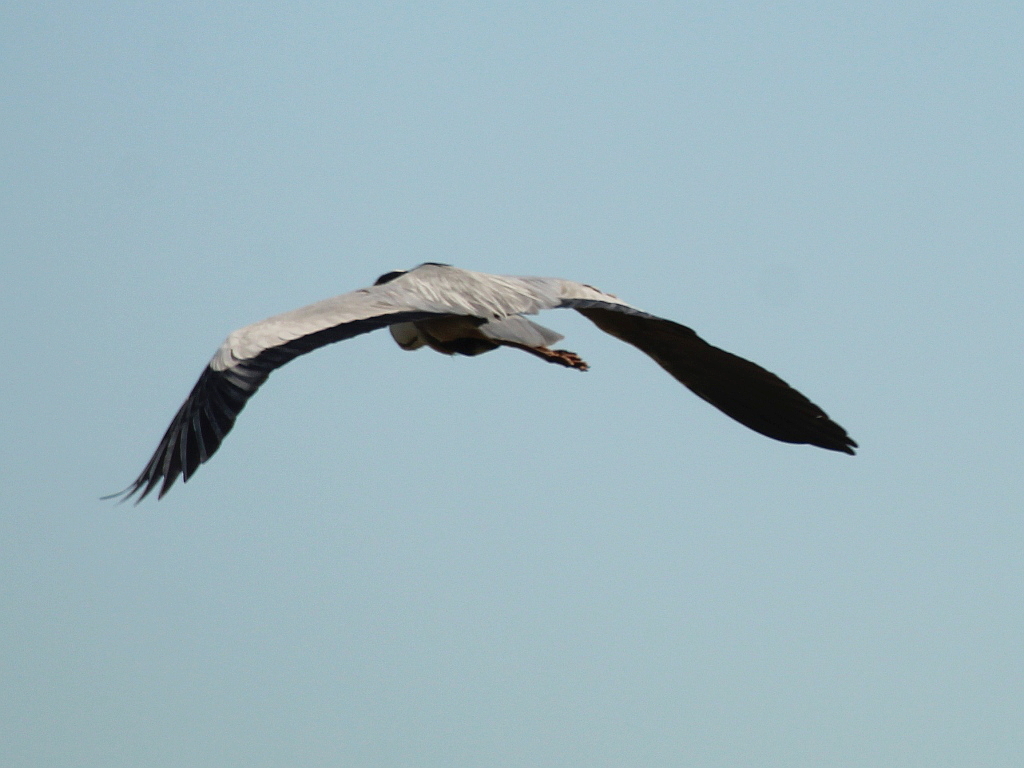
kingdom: Animalia
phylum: Chordata
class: Aves
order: Pelecaniformes
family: Ardeidae
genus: Ardea
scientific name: Ardea cinerea
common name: Grey heron
